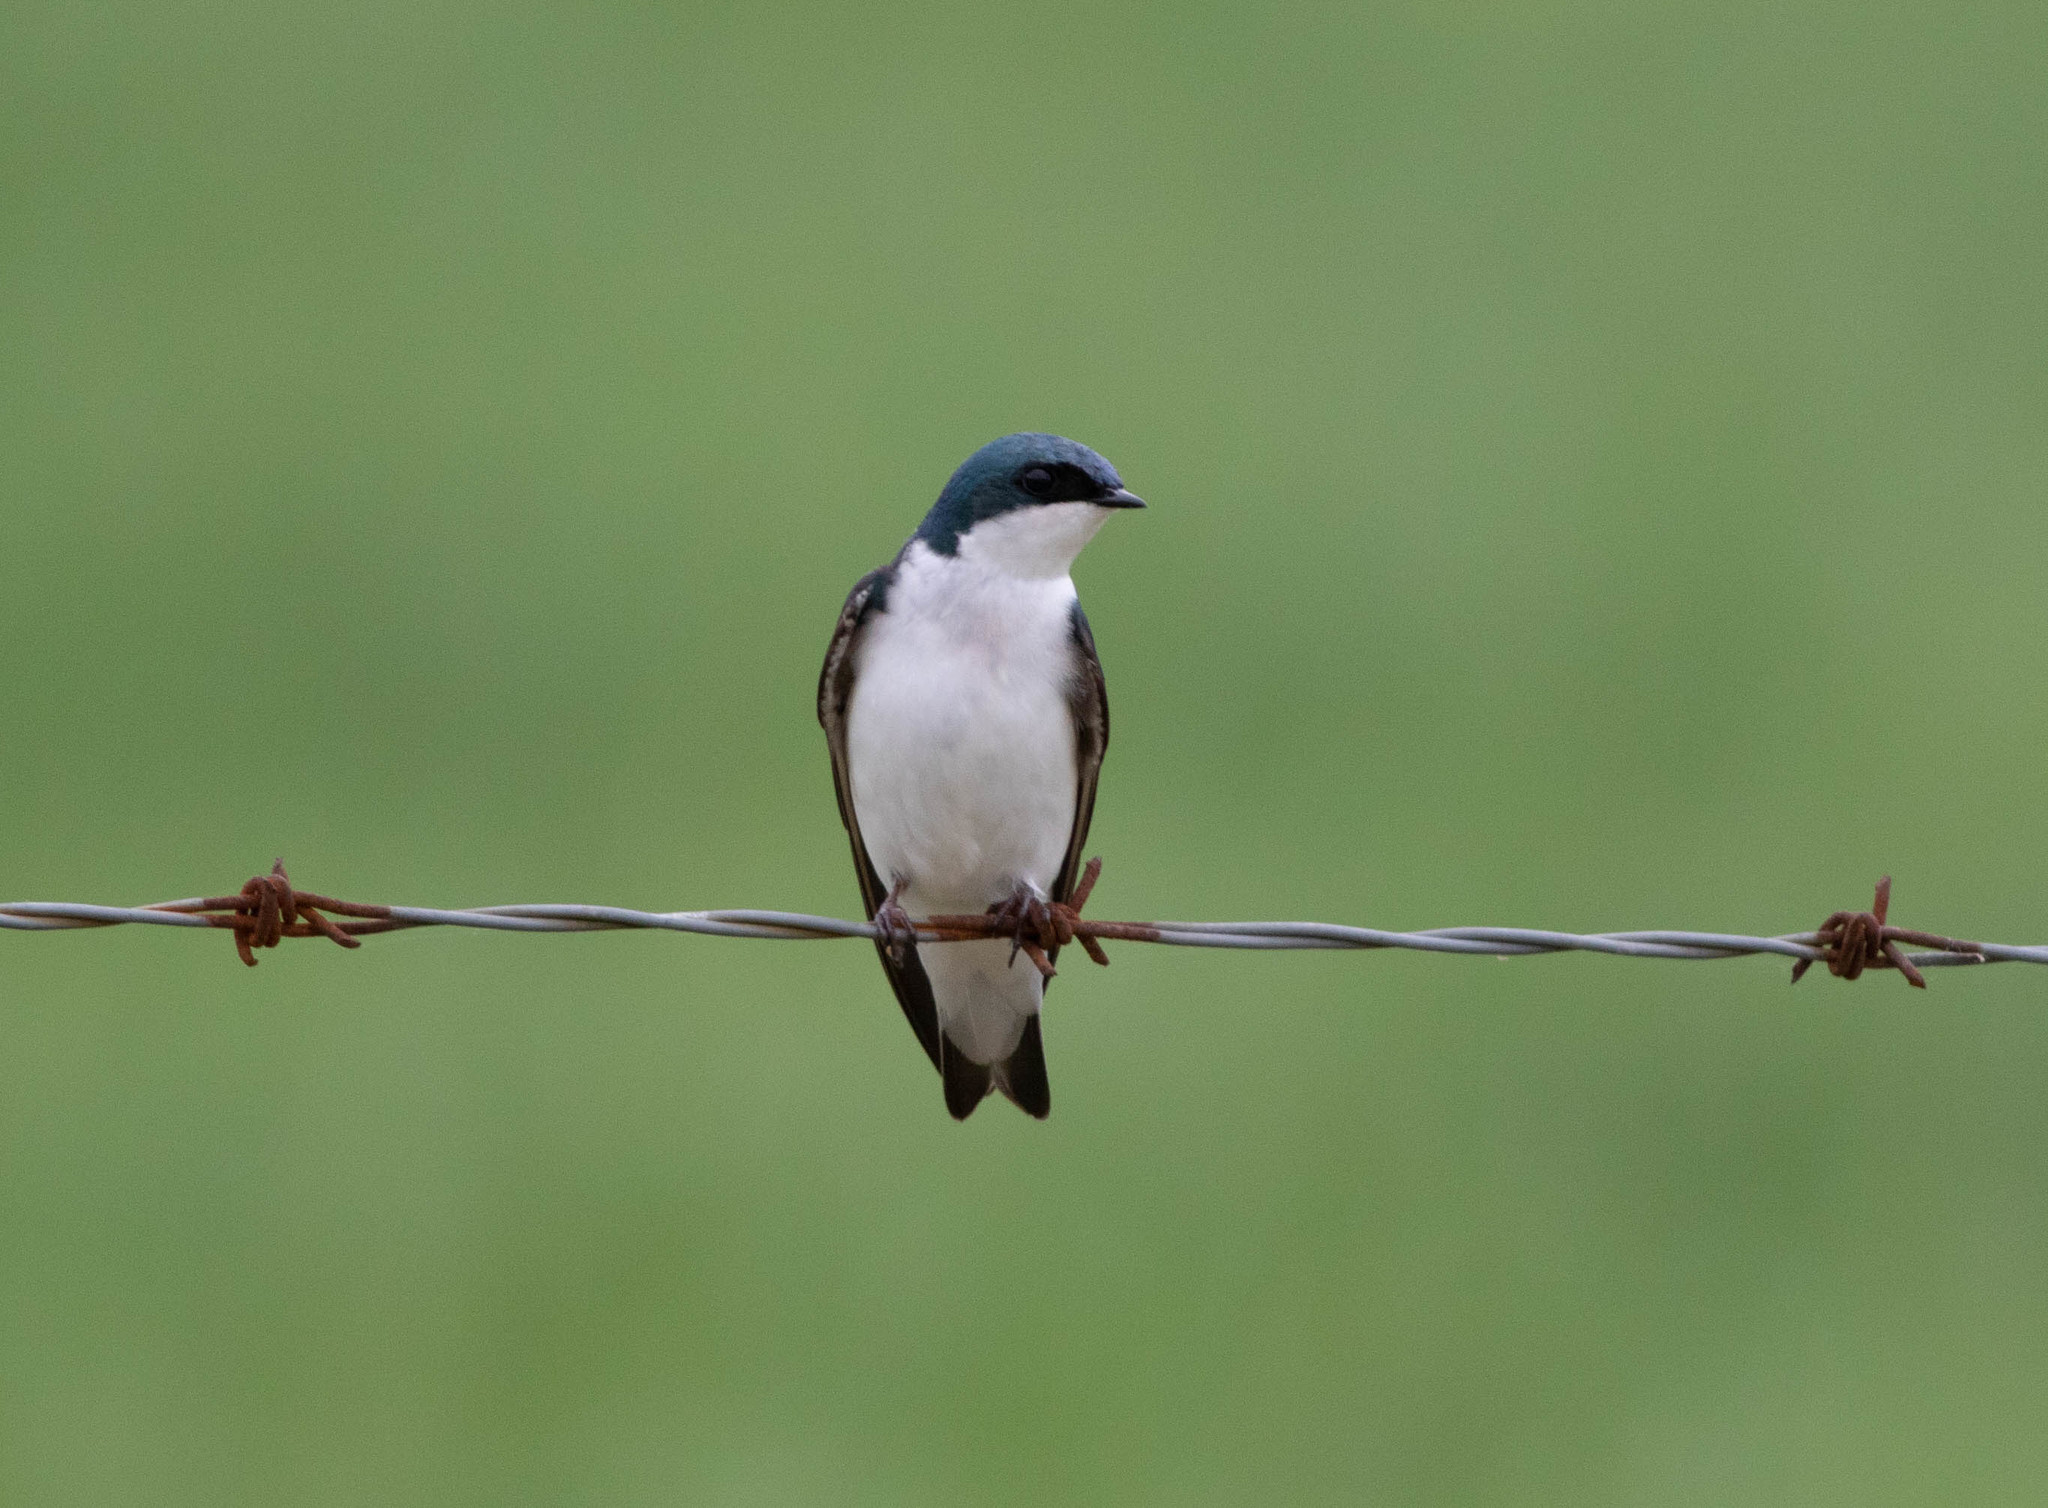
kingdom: Animalia
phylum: Chordata
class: Aves
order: Passeriformes
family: Hirundinidae
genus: Tachycineta
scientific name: Tachycineta bicolor
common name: Tree swallow
